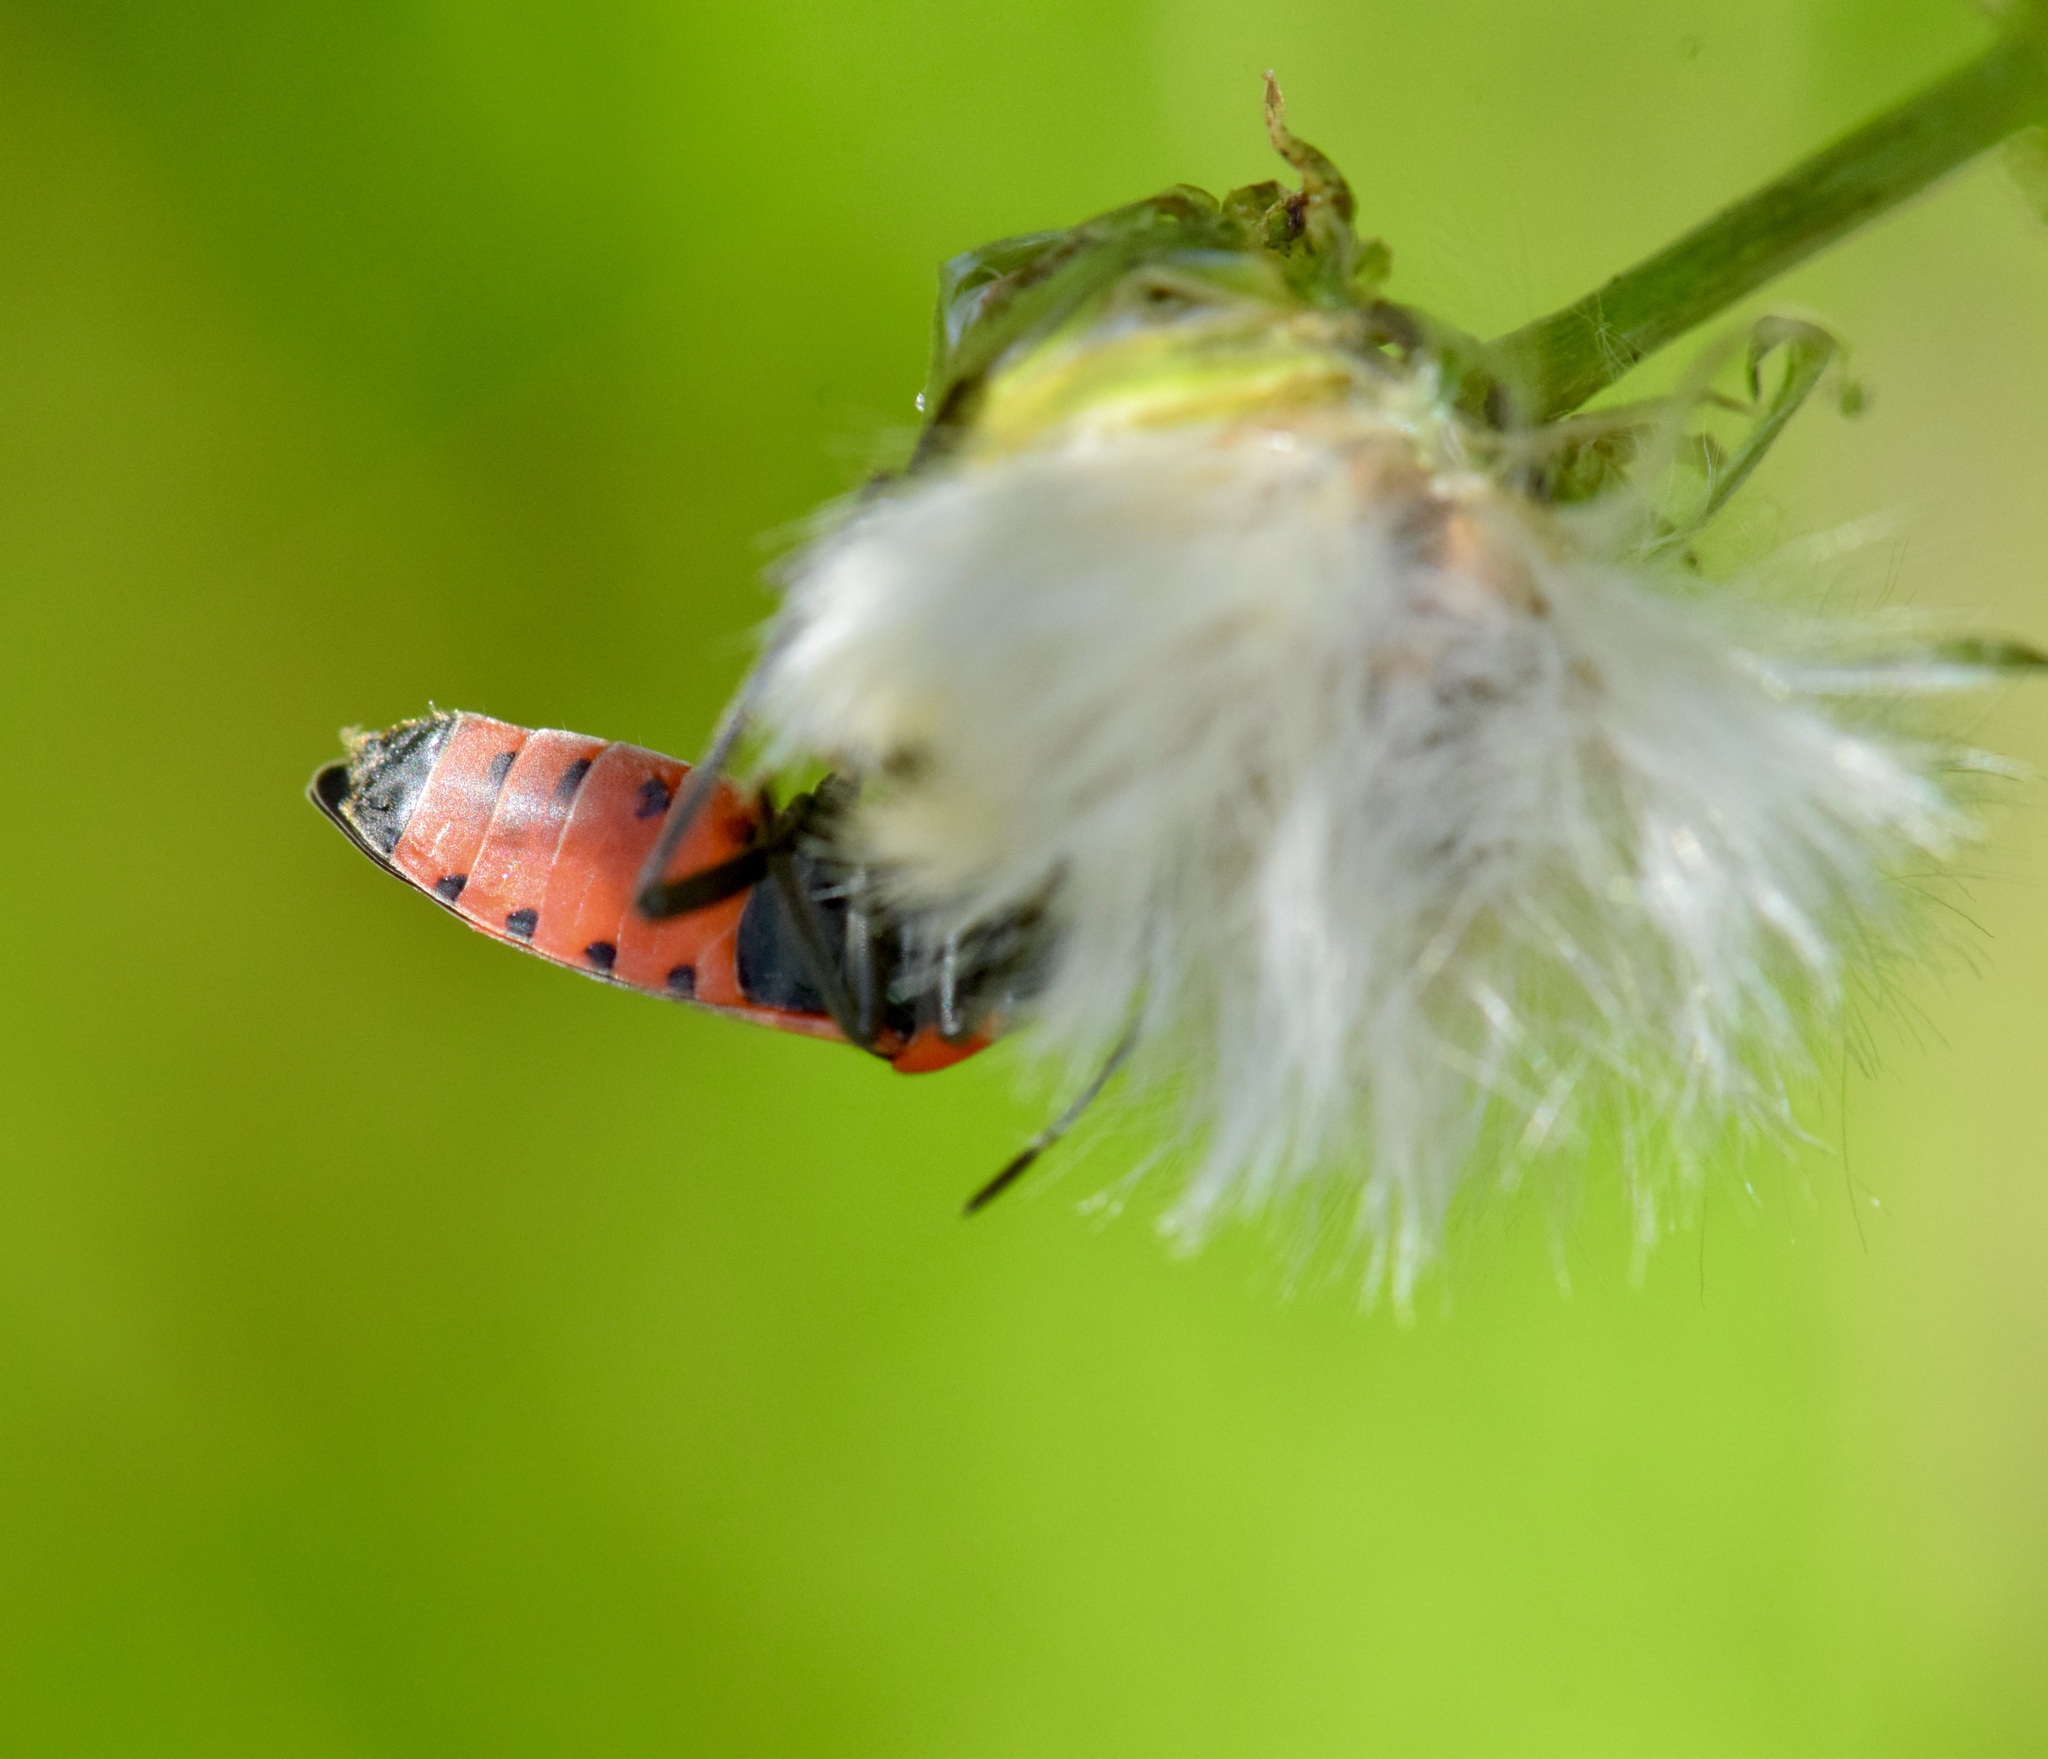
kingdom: Animalia
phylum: Arthropoda
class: Insecta
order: Hemiptera
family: Lygaeidae
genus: Lygaeus
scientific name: Lygaeus kalmii
